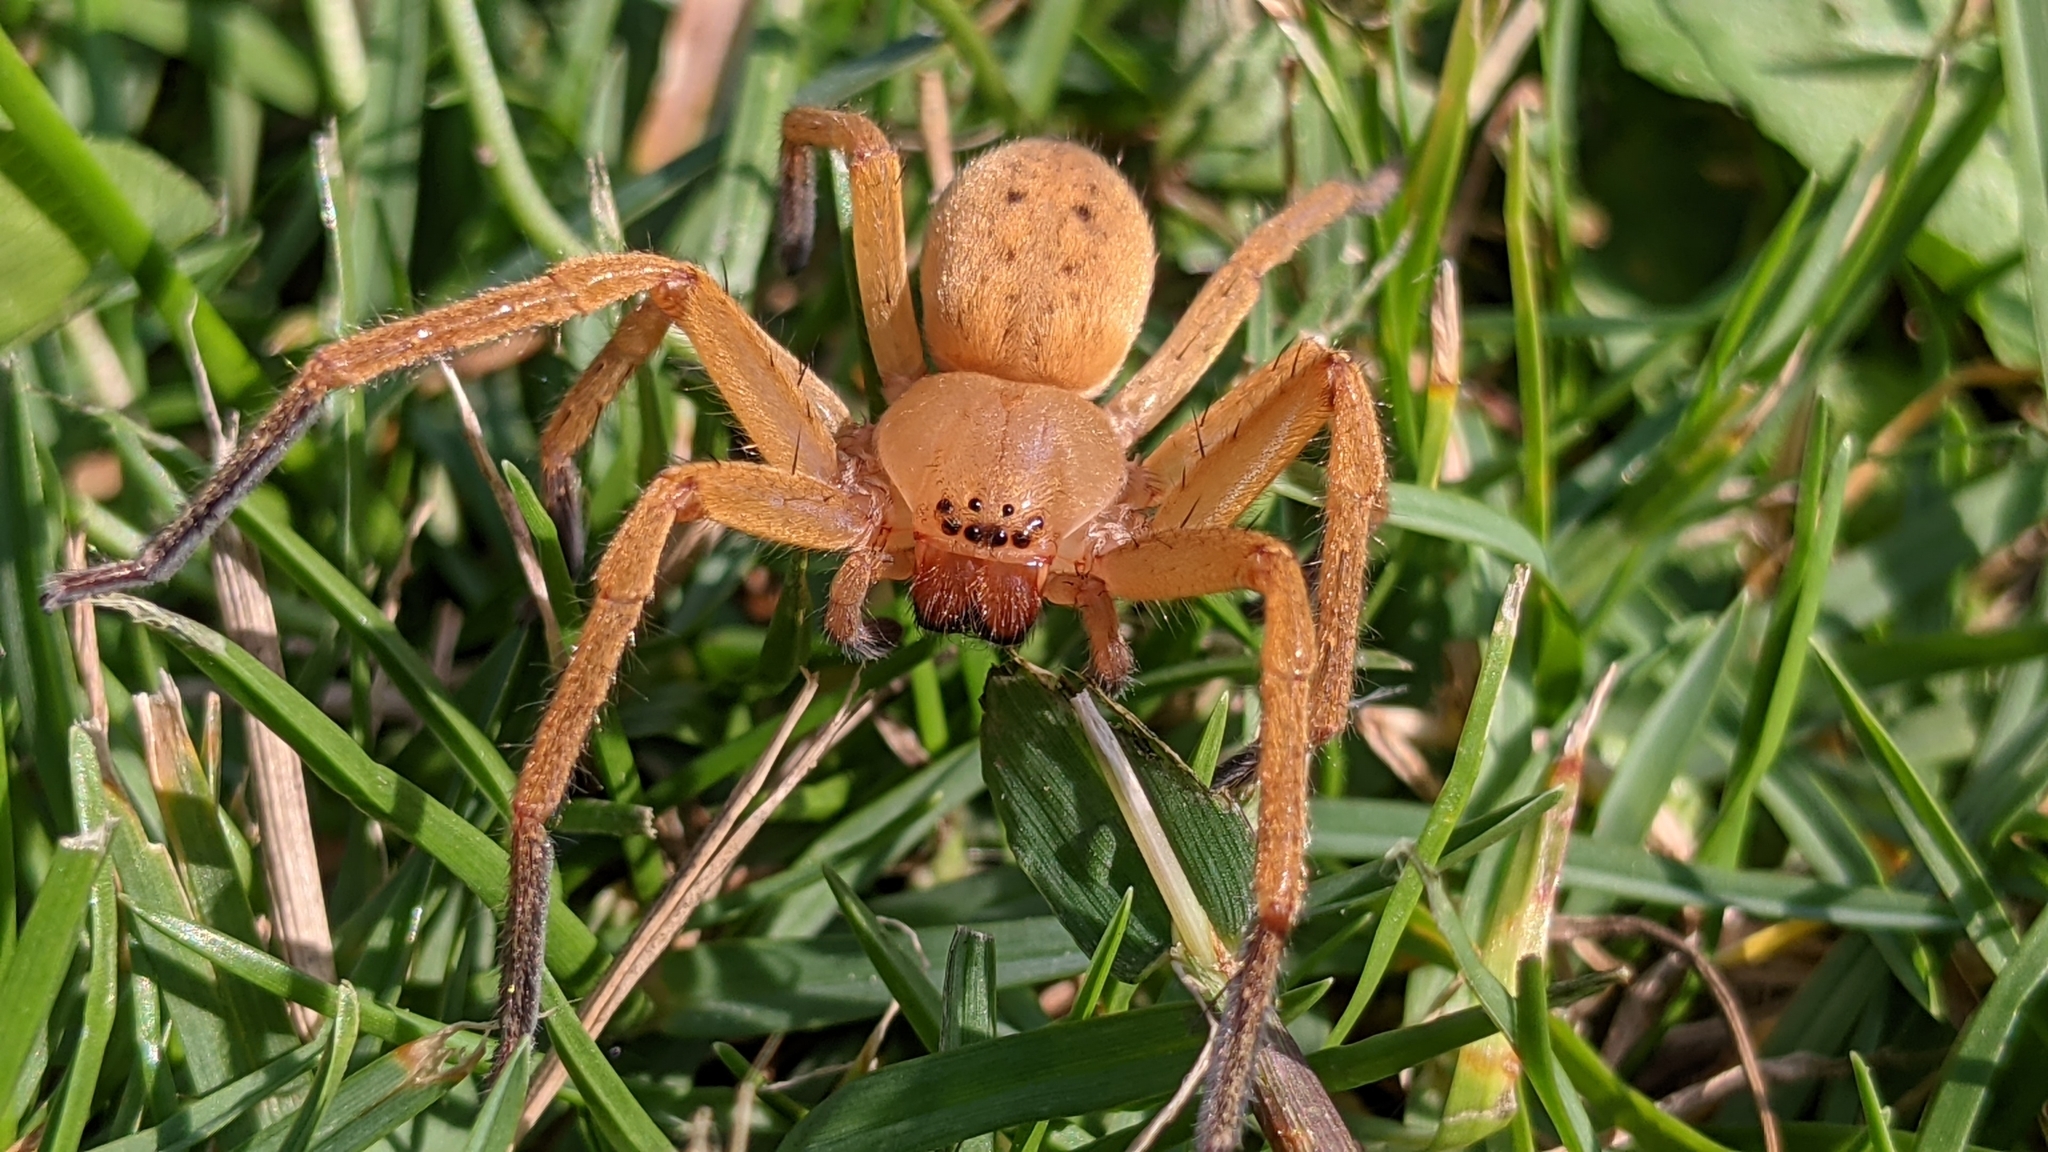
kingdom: Animalia
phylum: Arthropoda
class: Arachnida
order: Araneae
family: Sparassidae
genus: Olios
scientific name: Olios argelasius
